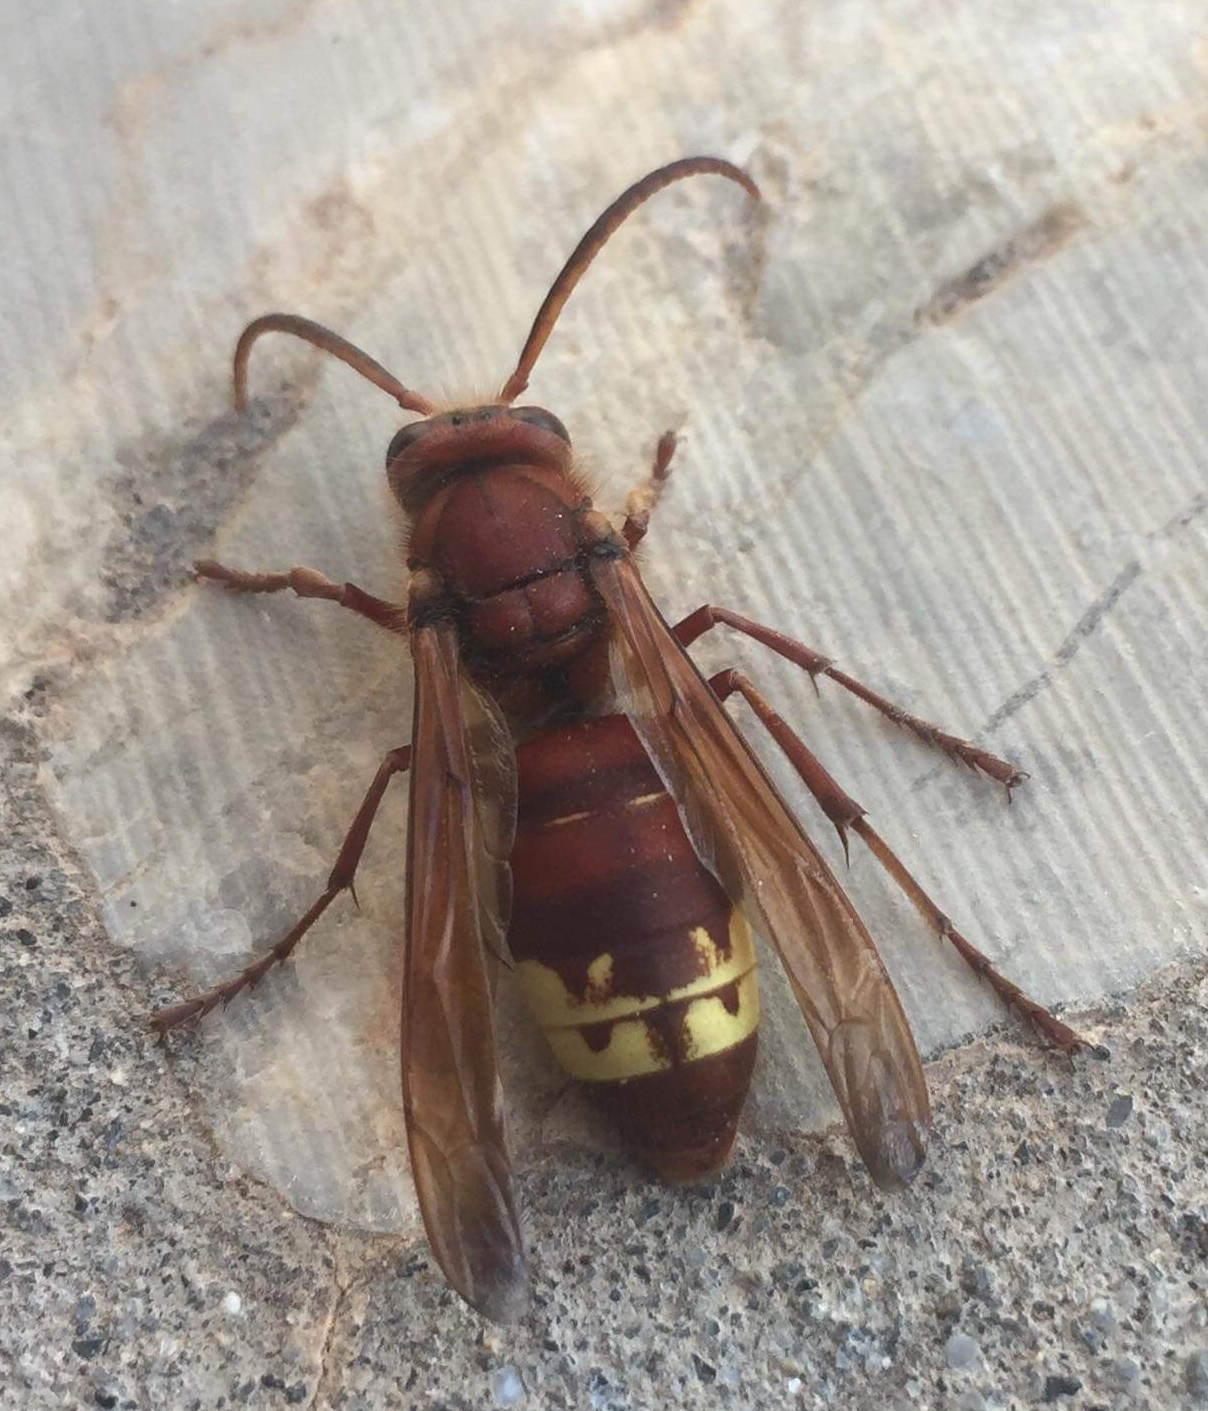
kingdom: Animalia
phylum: Arthropoda
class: Insecta
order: Hymenoptera
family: Vespidae
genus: Vespa
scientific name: Vespa orientalis
